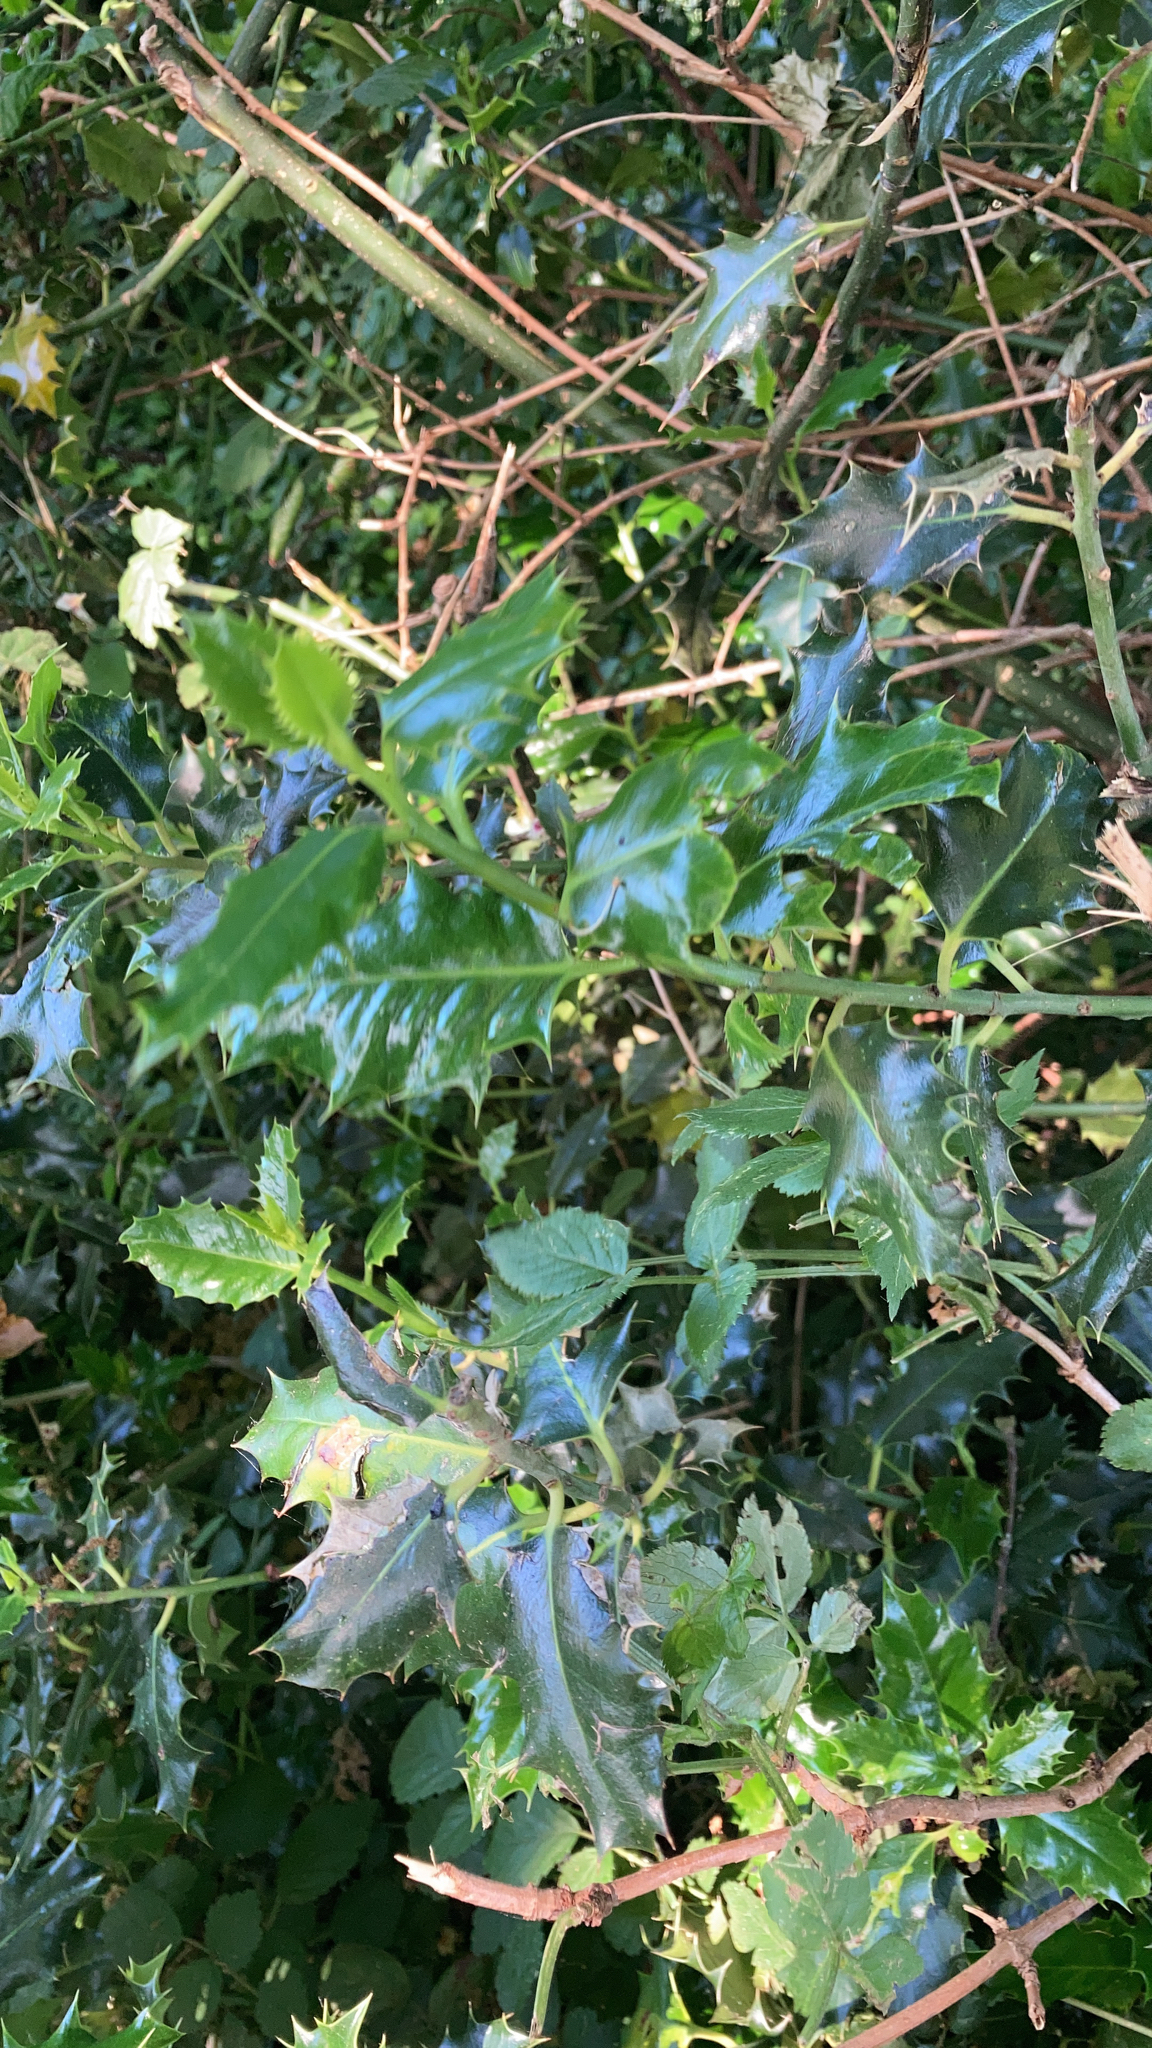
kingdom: Plantae
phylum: Tracheophyta
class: Magnoliopsida
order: Aquifoliales
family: Aquifoliaceae
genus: Ilex
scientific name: Ilex aquifolium
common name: English holly
